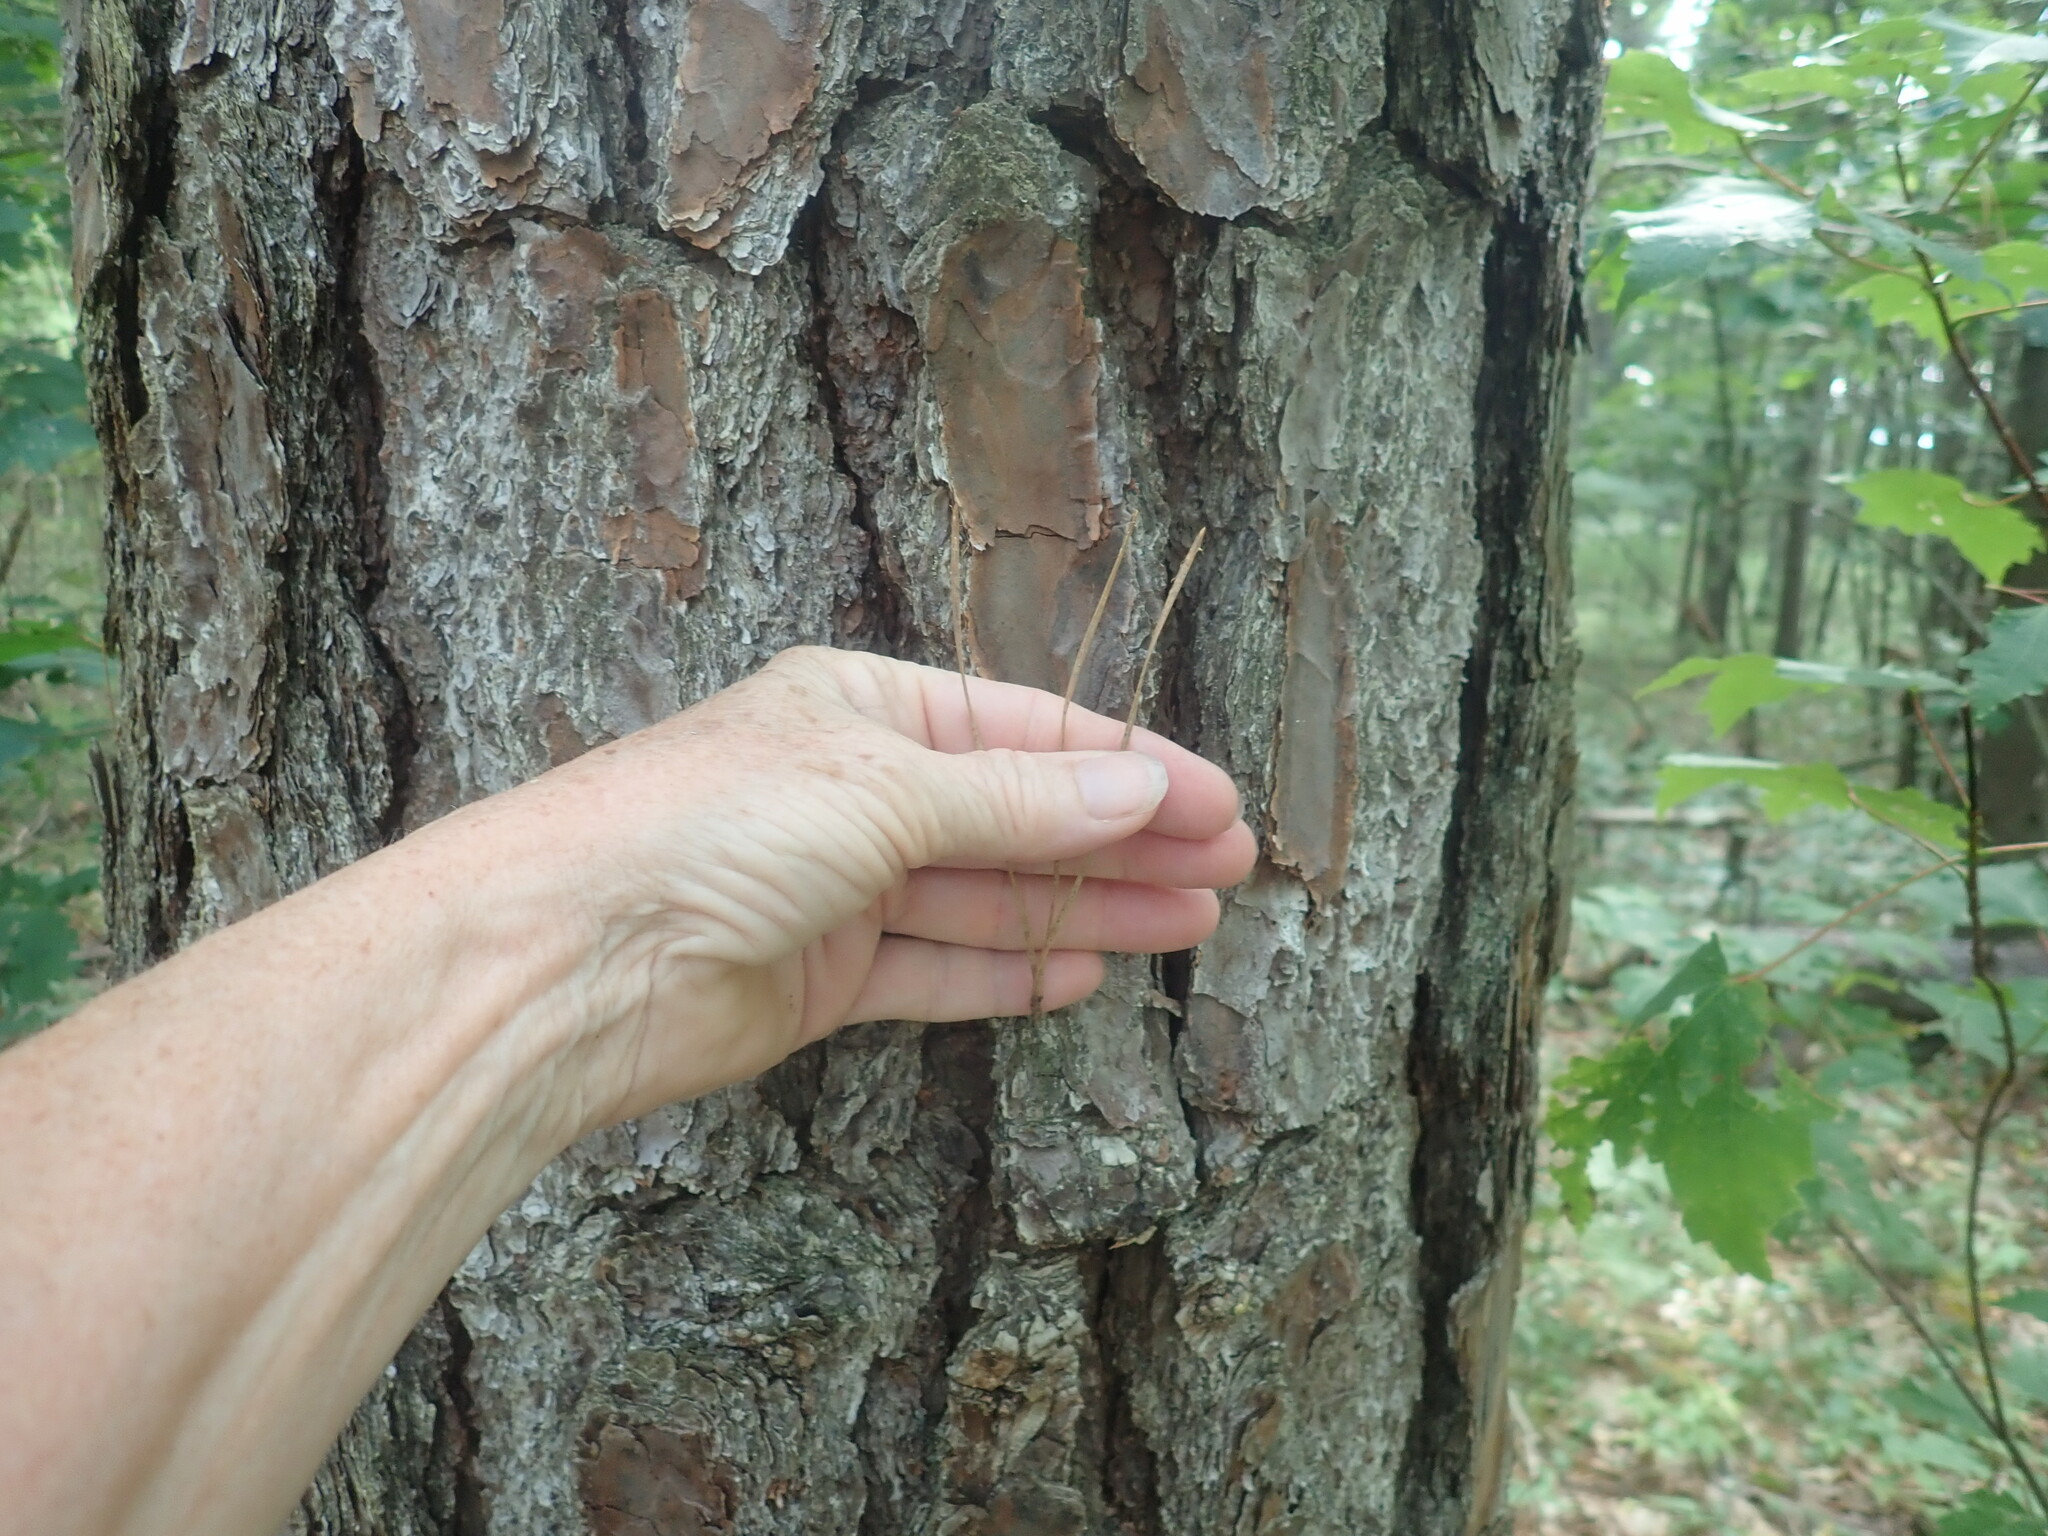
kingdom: Plantae
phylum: Tracheophyta
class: Pinopsida
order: Pinales
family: Pinaceae
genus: Pinus
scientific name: Pinus rigida
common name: Pitch pine
